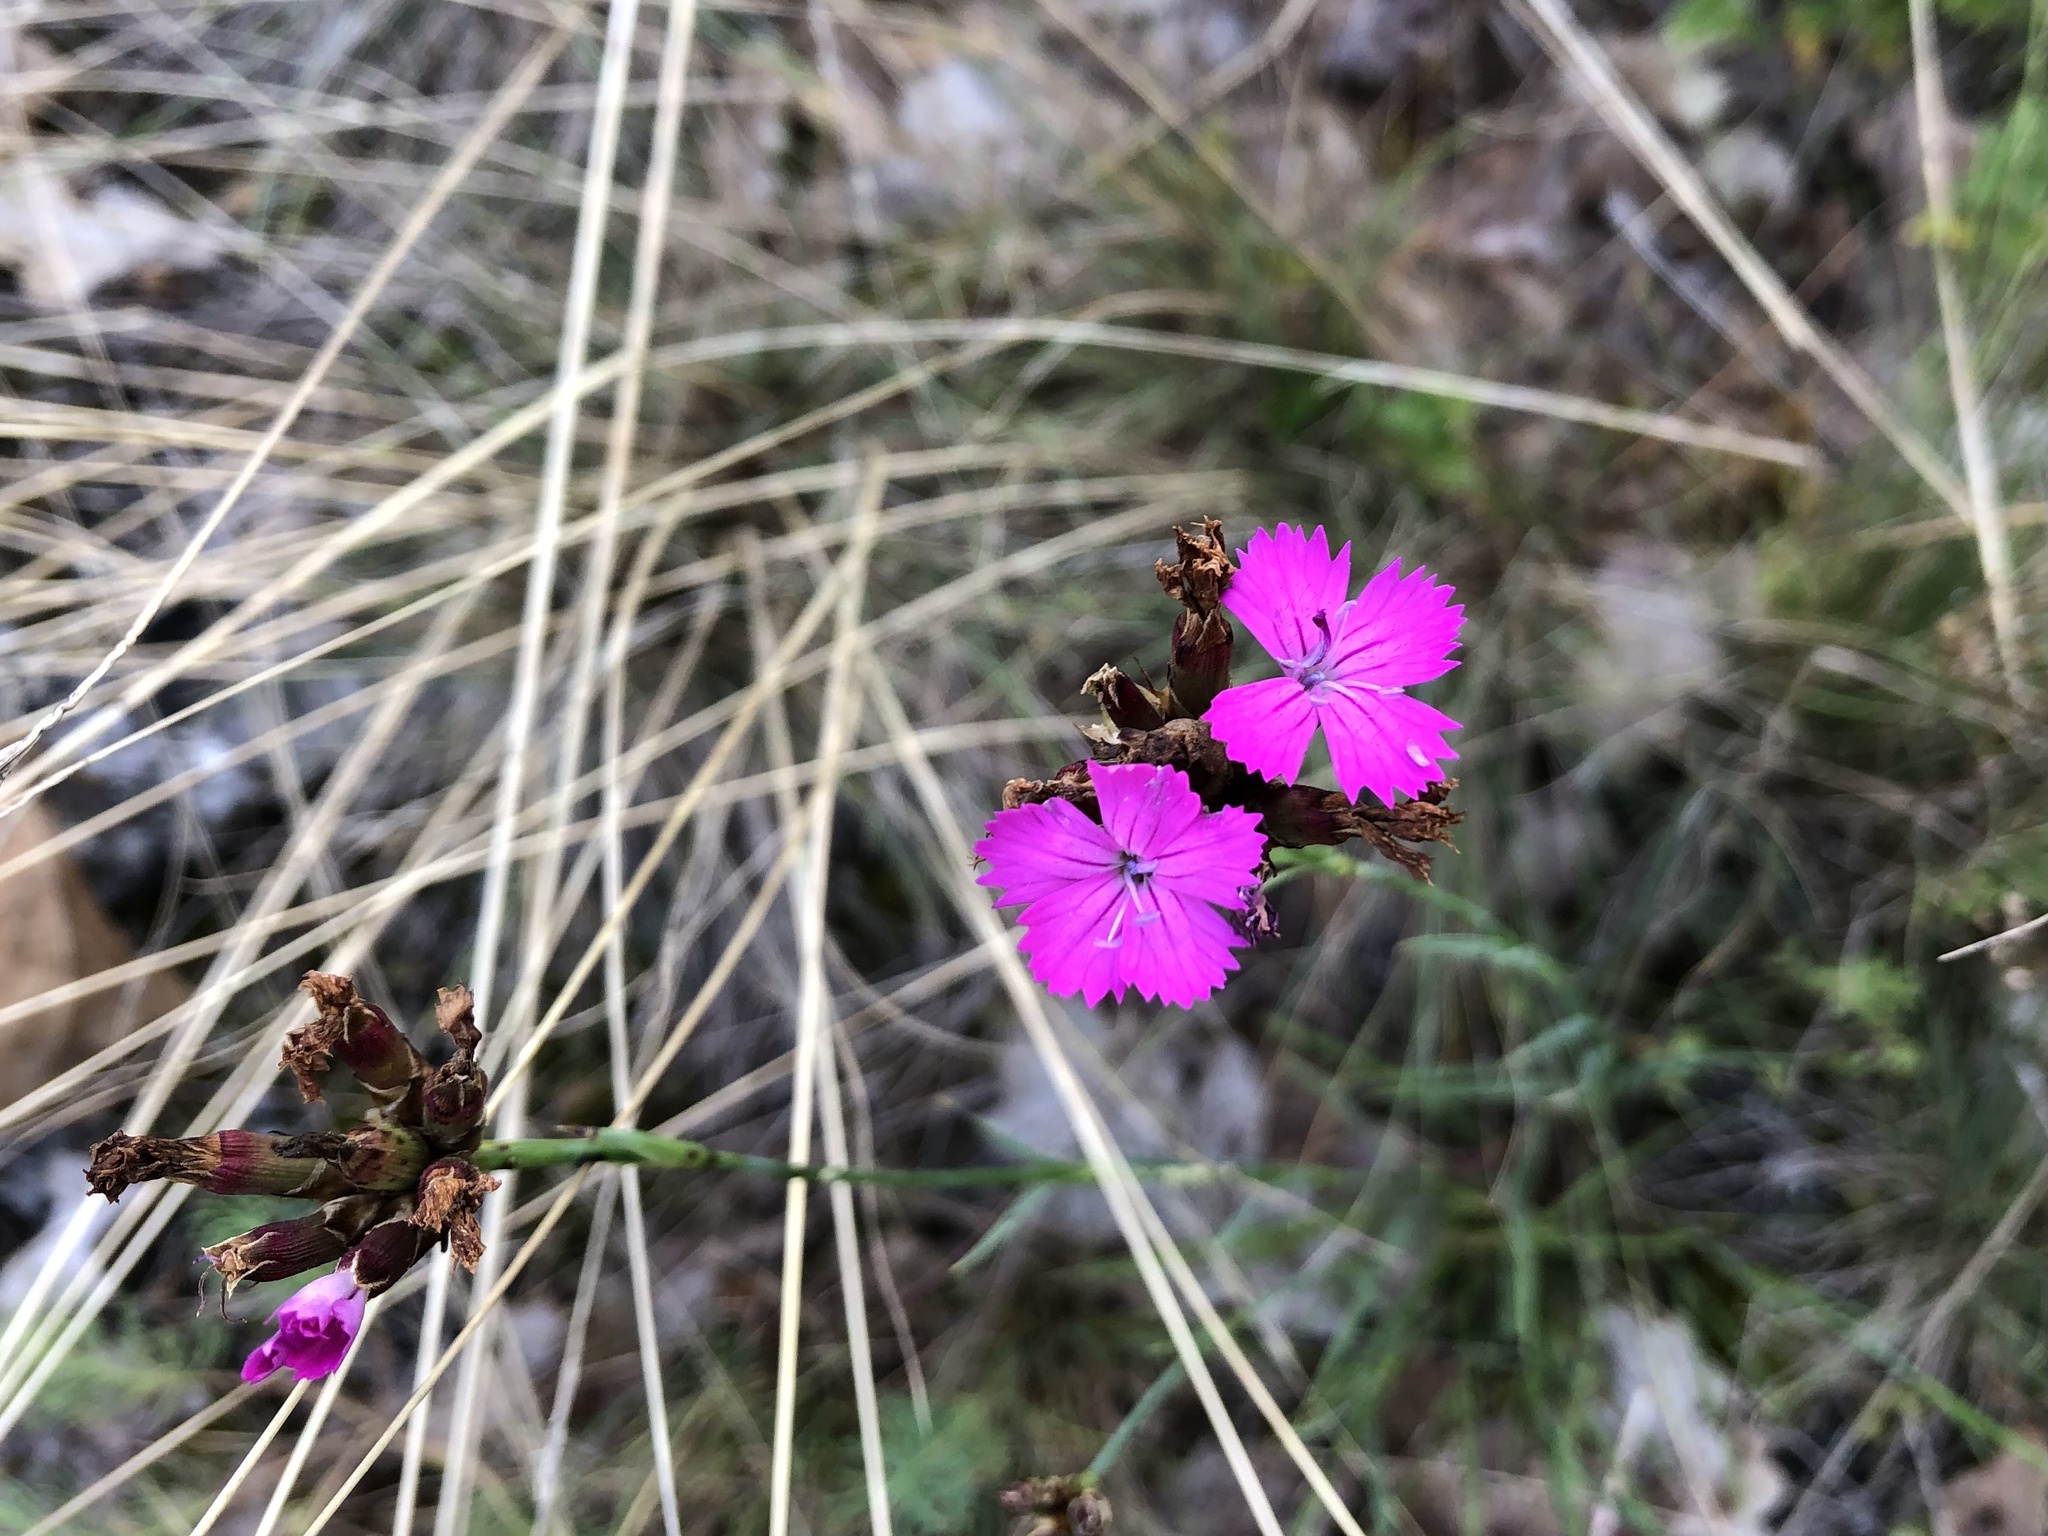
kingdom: Plantae
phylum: Tracheophyta
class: Magnoliopsida
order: Caryophyllales
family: Caryophyllaceae
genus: Dianthus
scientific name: Dianthus carthusianorum
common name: Carthusian pink
